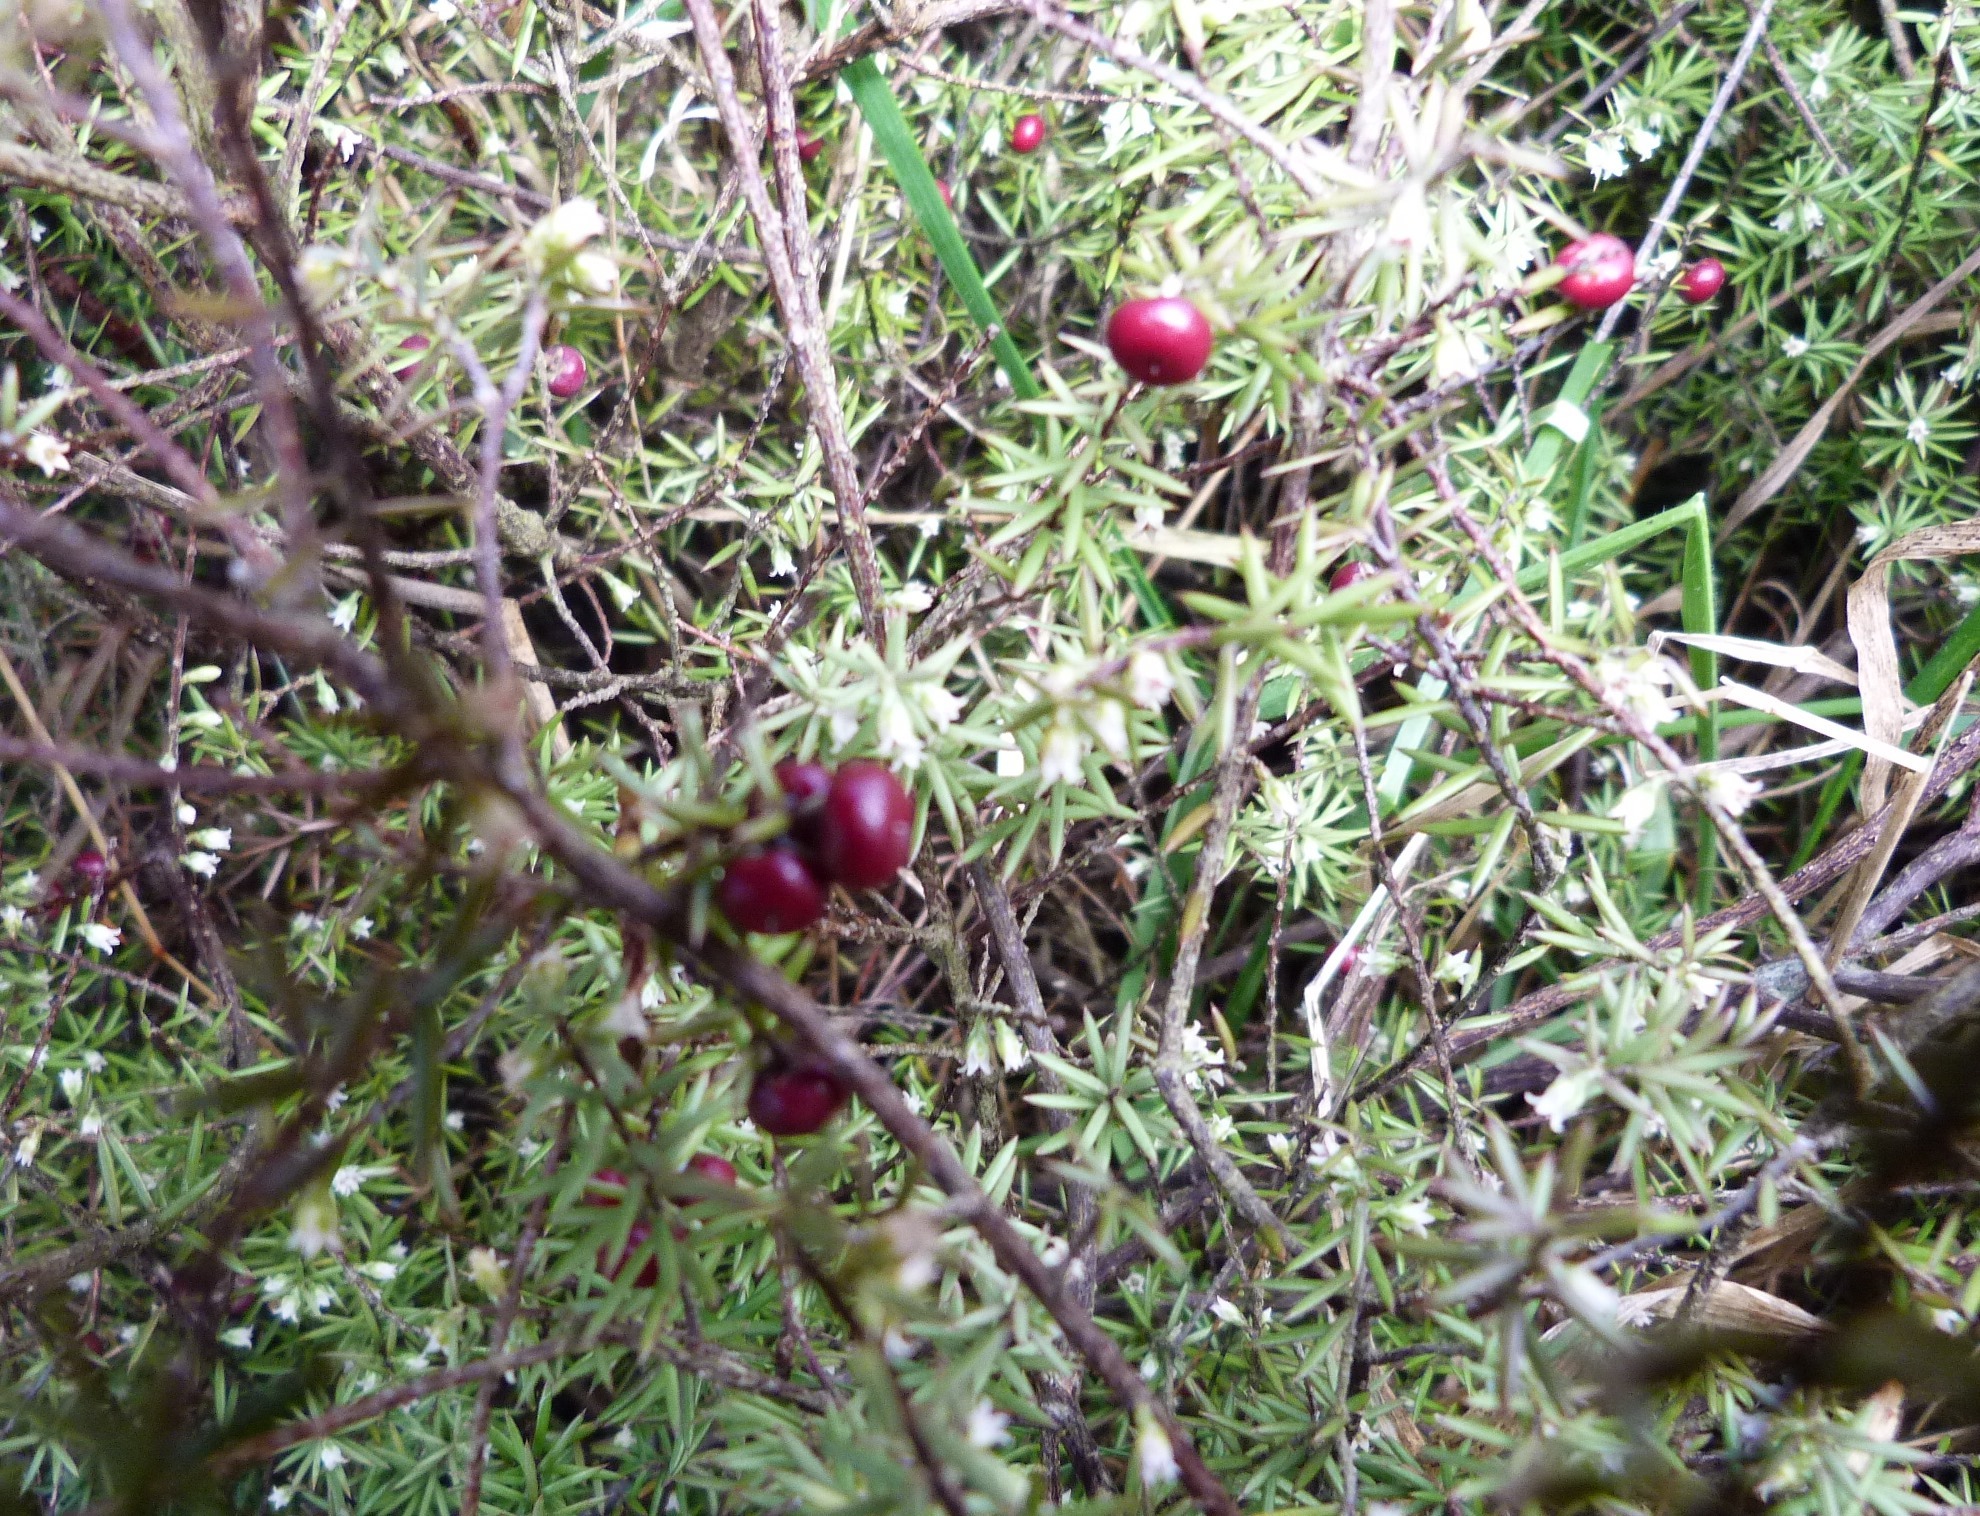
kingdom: Plantae
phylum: Tracheophyta
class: Magnoliopsida
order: Ericales
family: Ericaceae
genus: Leptecophylla
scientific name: Leptecophylla juniperina
